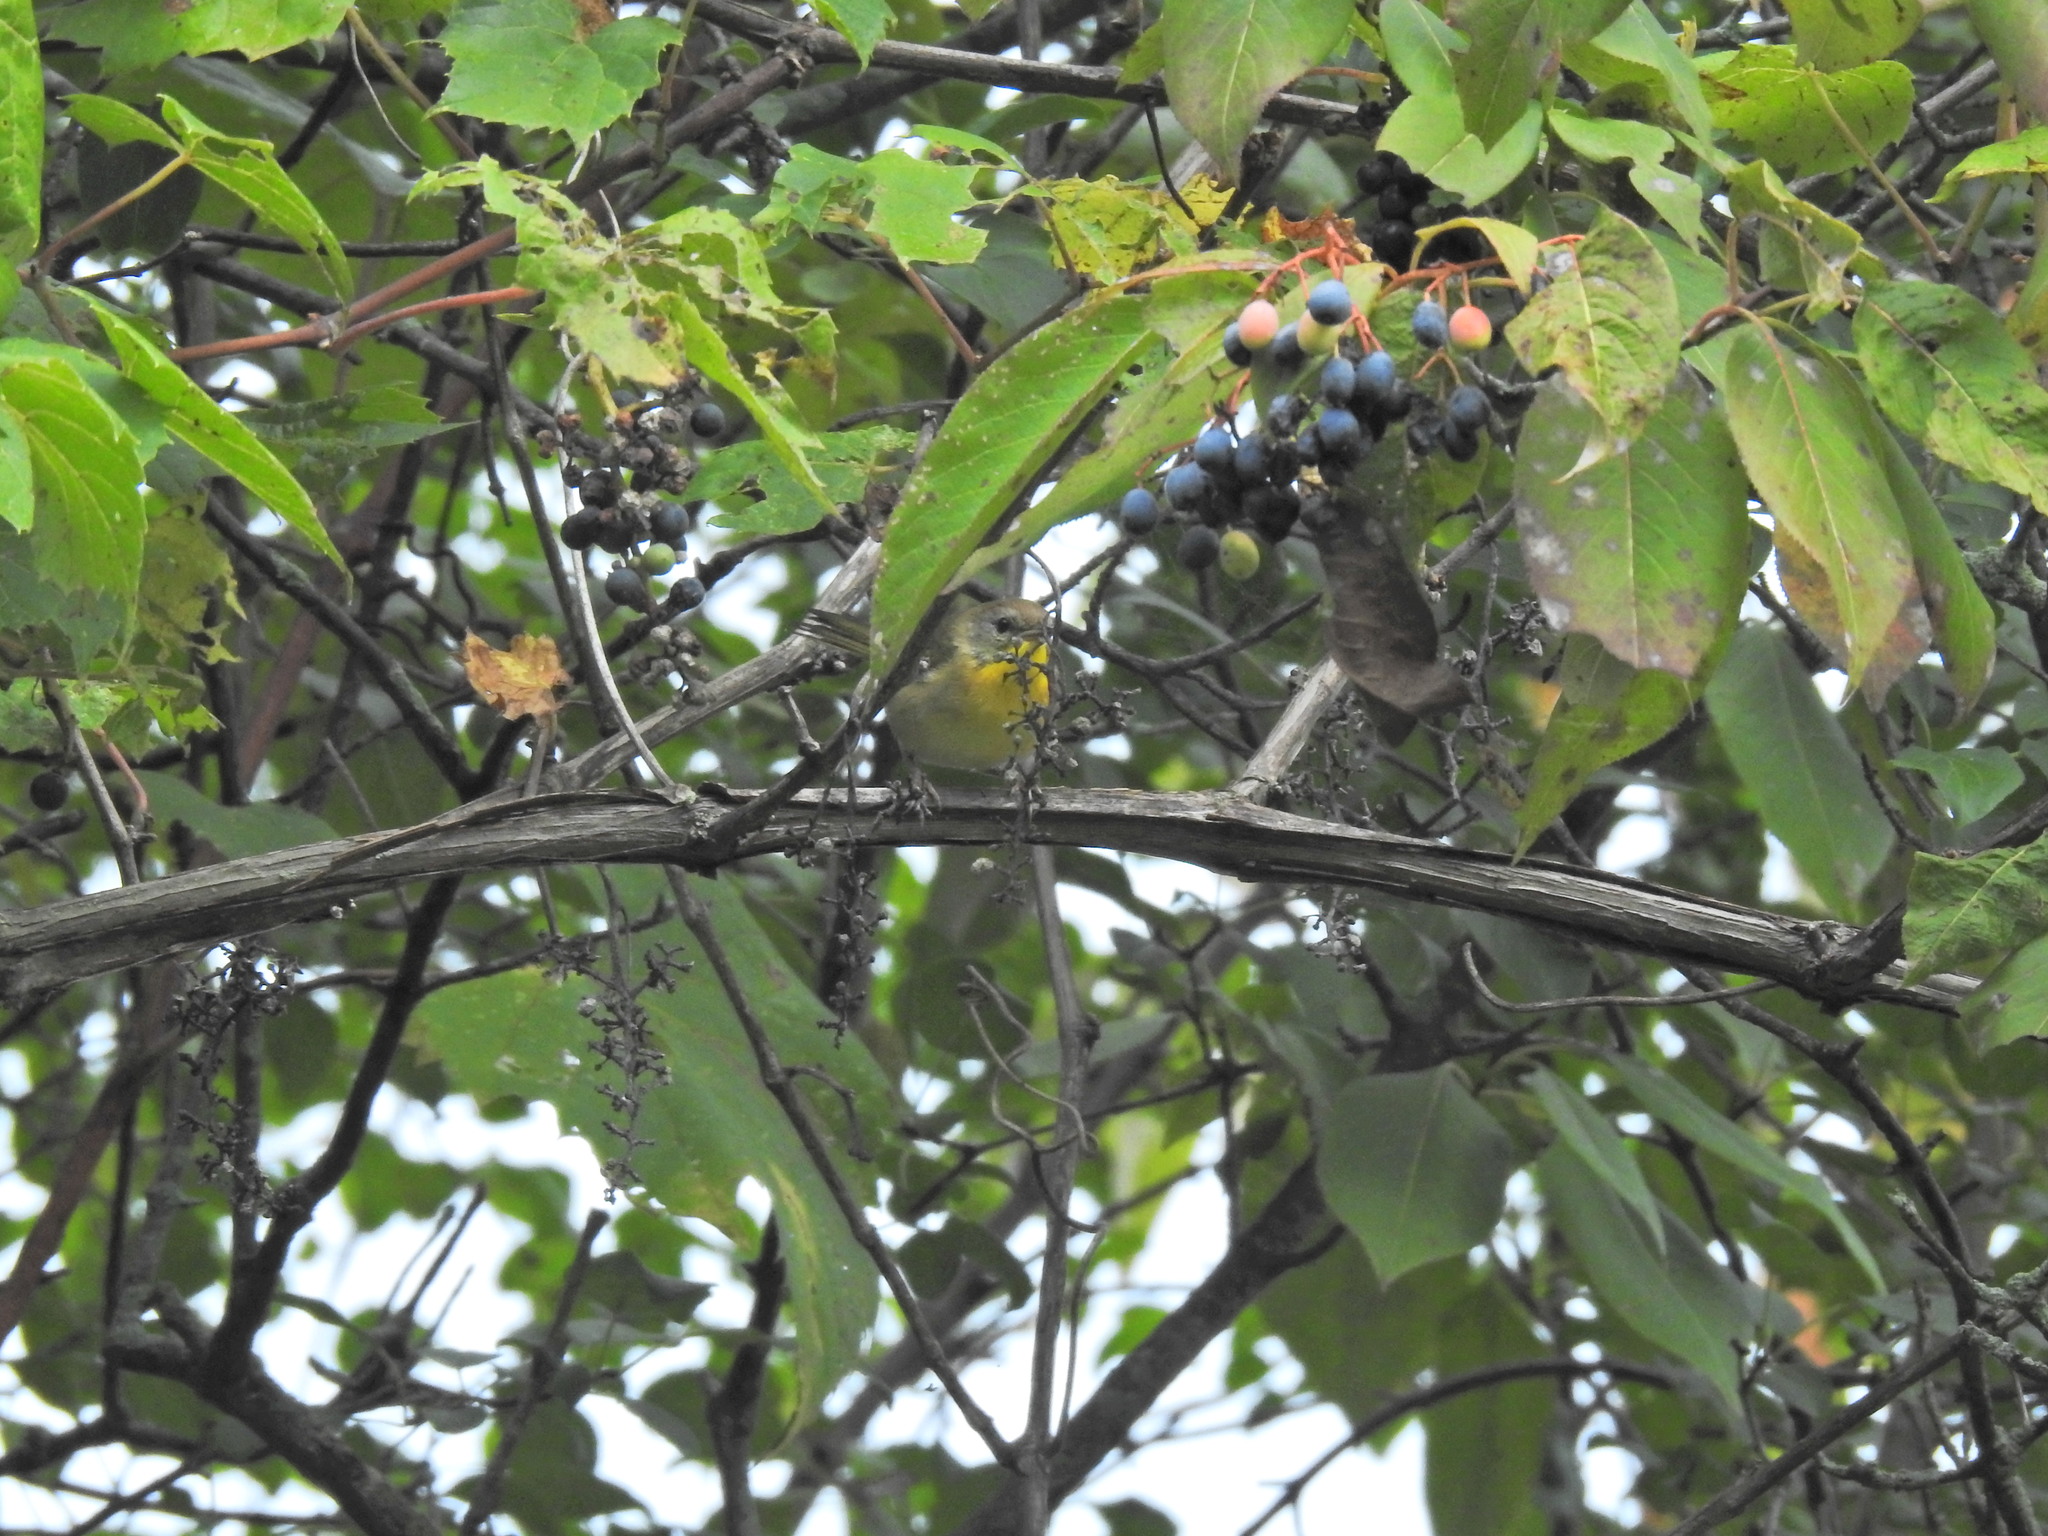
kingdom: Animalia
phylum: Chordata
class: Aves
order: Passeriformes
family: Parulidae
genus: Geothlypis
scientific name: Geothlypis trichas
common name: Common yellowthroat
